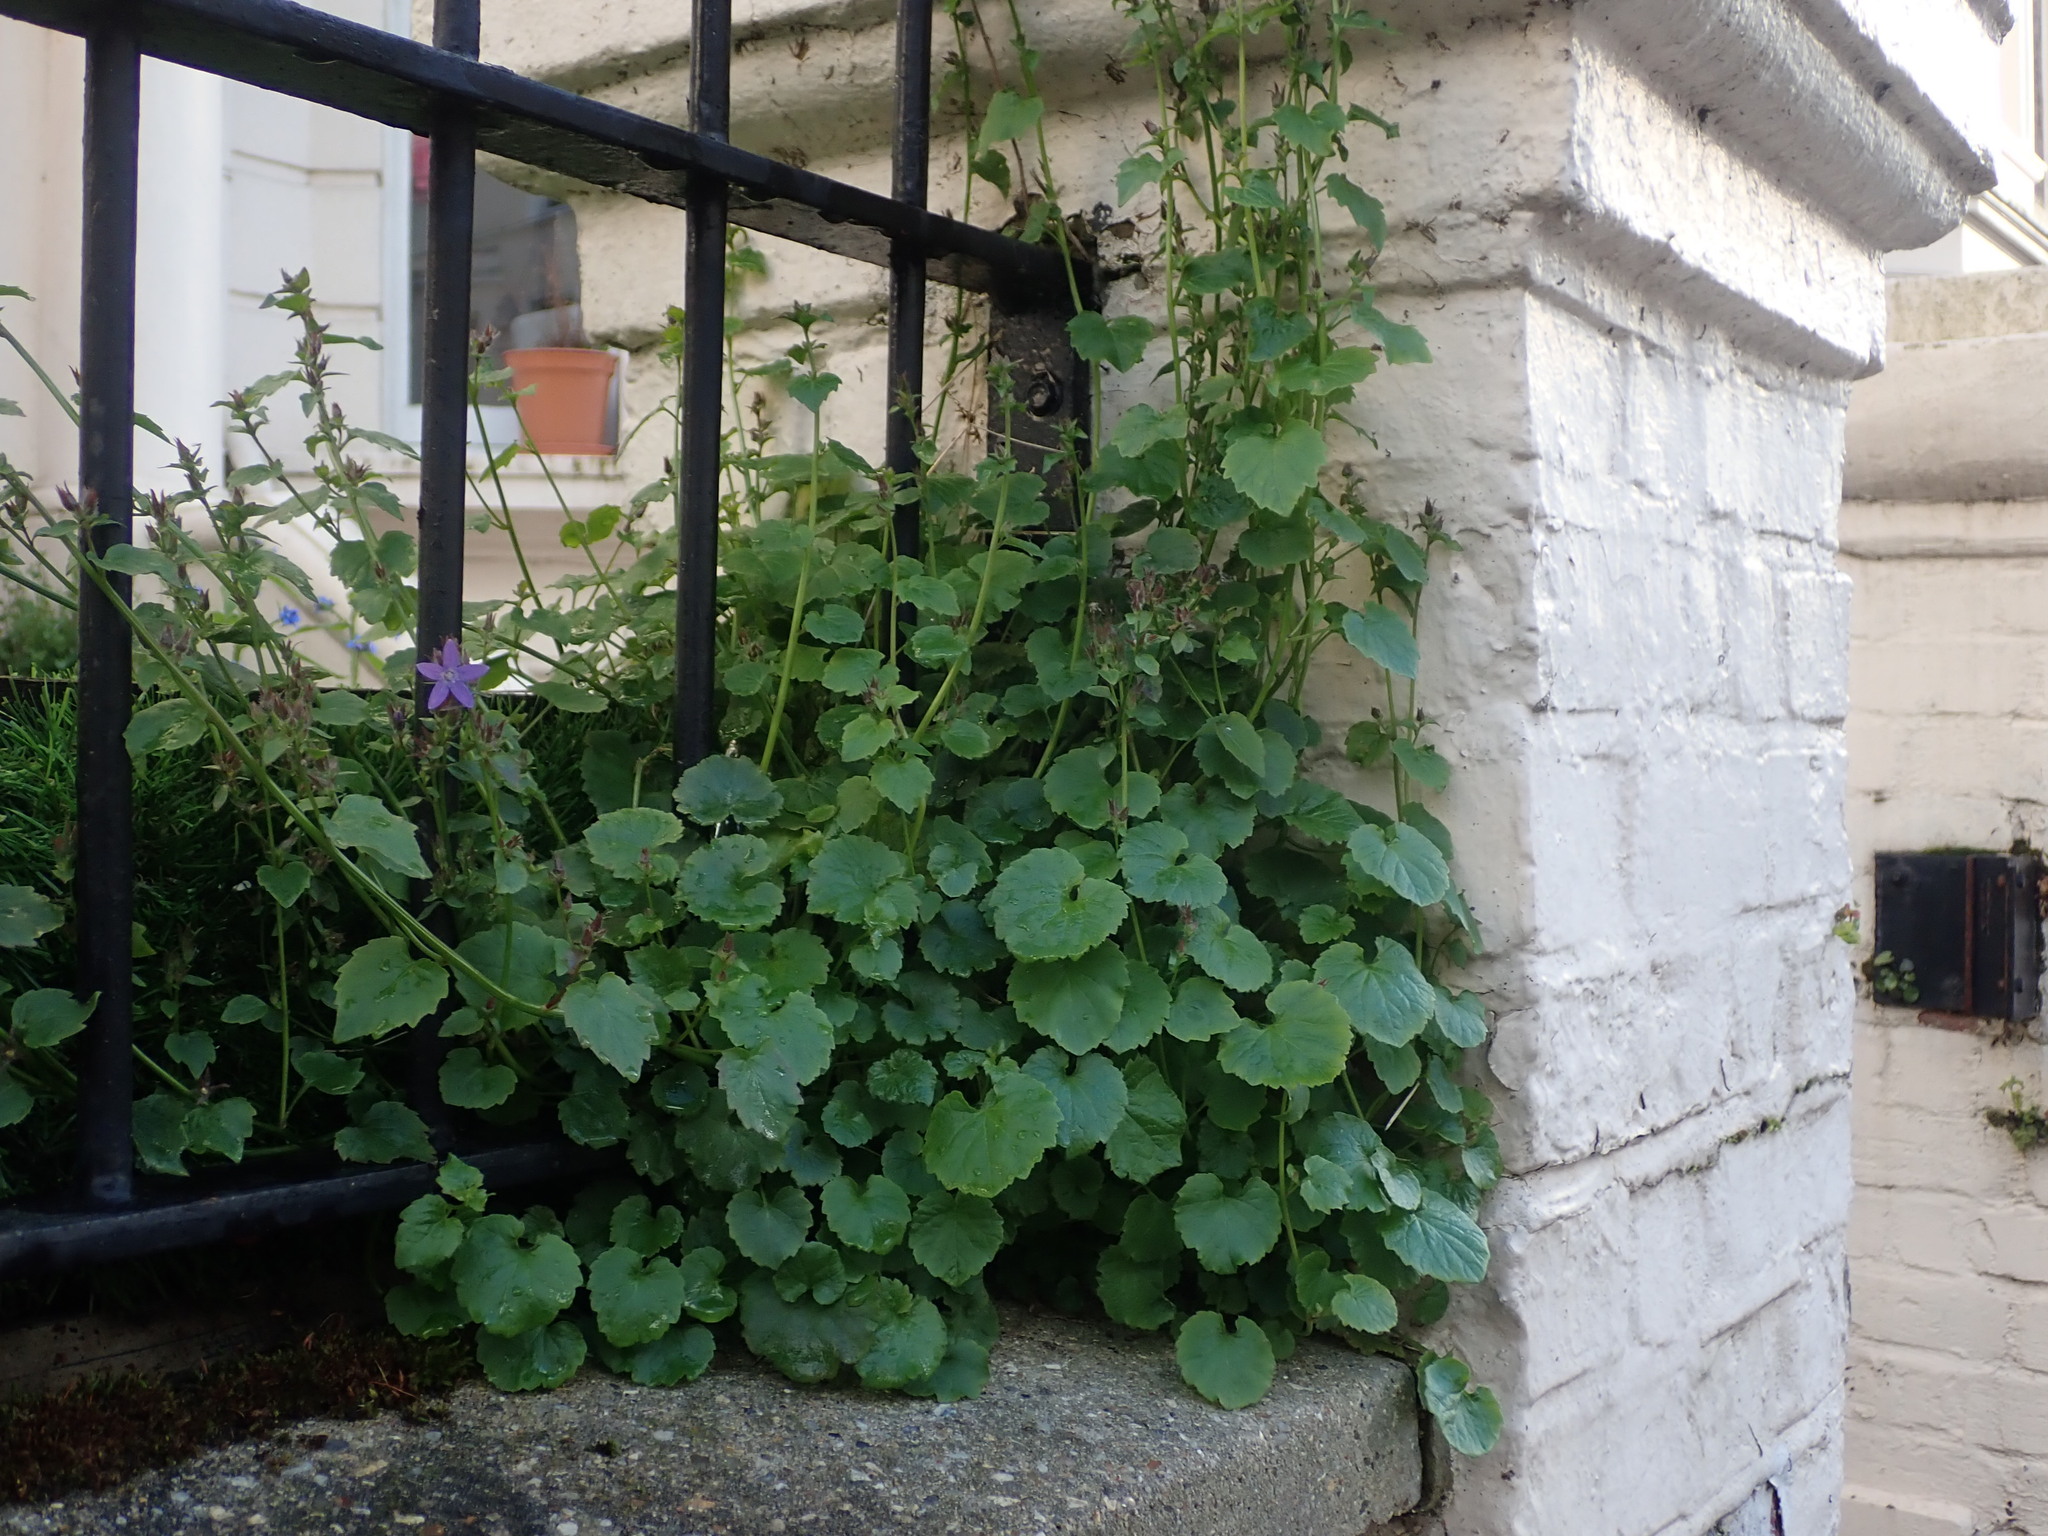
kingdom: Plantae
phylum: Tracheophyta
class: Magnoliopsida
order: Asterales
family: Campanulaceae
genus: Campanula
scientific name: Campanula poscharskyana
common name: Trailing bellflower
